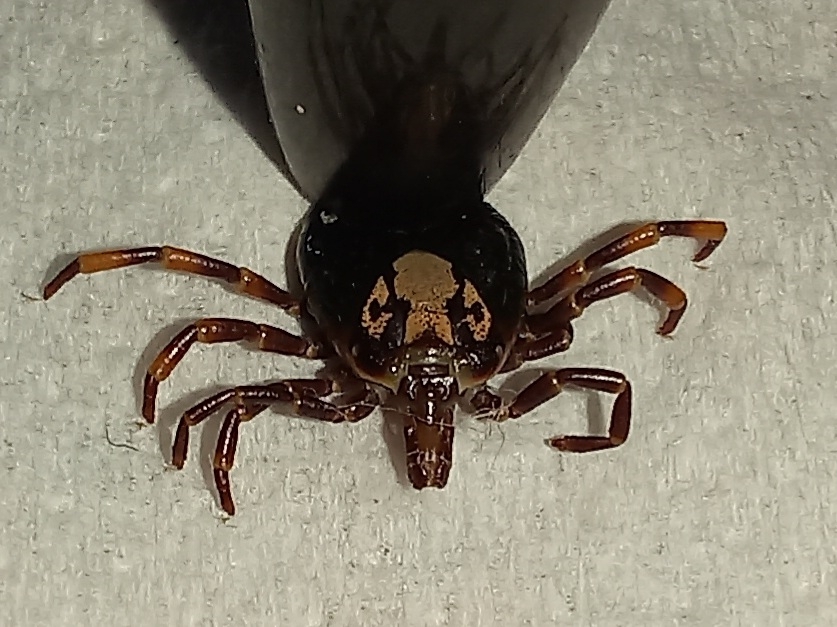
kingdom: Animalia
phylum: Arthropoda
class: Arachnida
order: Ixodida
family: Ixodidae
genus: Amblyomma
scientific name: Amblyomma hebraeum
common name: Bont tick
